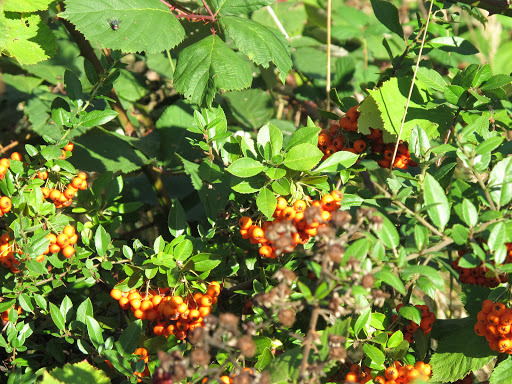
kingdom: Plantae
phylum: Tracheophyta
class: Magnoliopsida
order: Rosales
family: Rosaceae
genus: Pyracantha
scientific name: Pyracantha coccinea
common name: Firethorn
